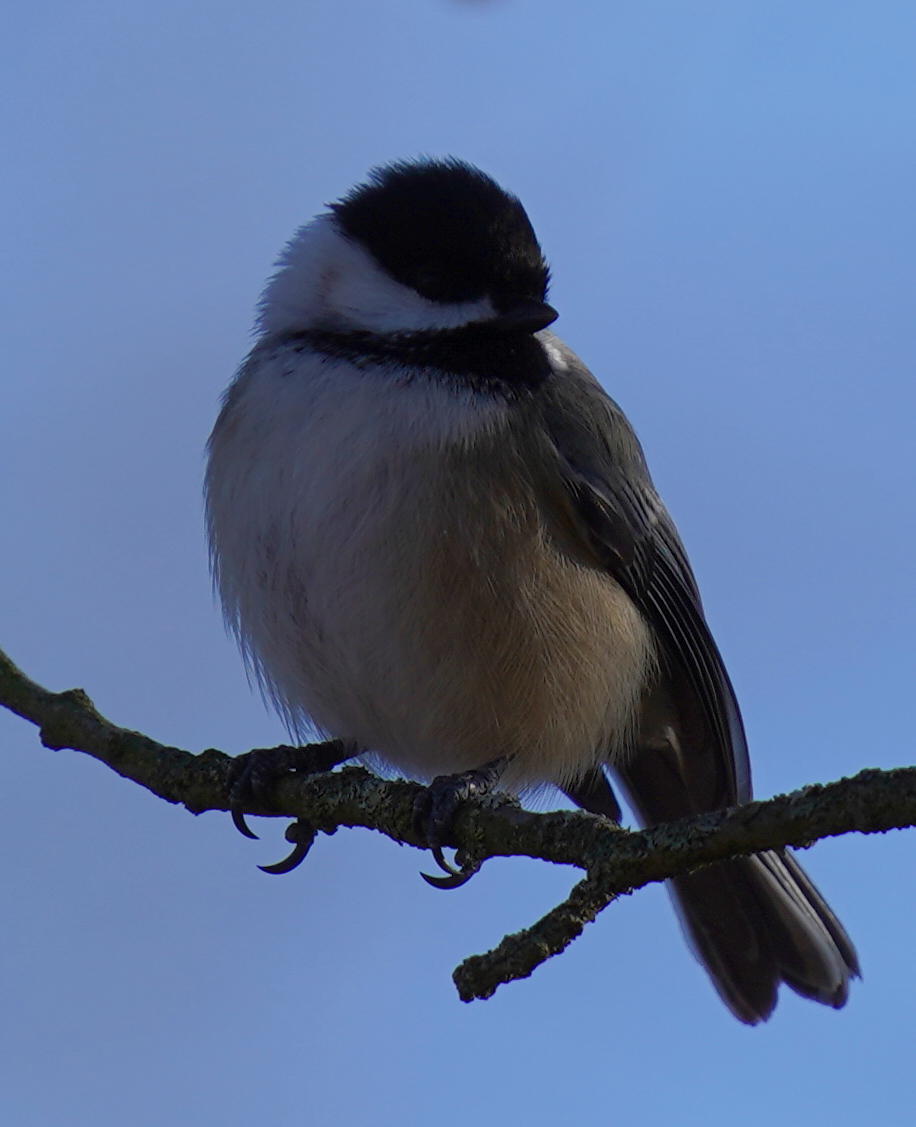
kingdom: Animalia
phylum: Chordata
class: Aves
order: Passeriformes
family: Paridae
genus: Poecile
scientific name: Poecile atricapillus
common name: Black-capped chickadee
